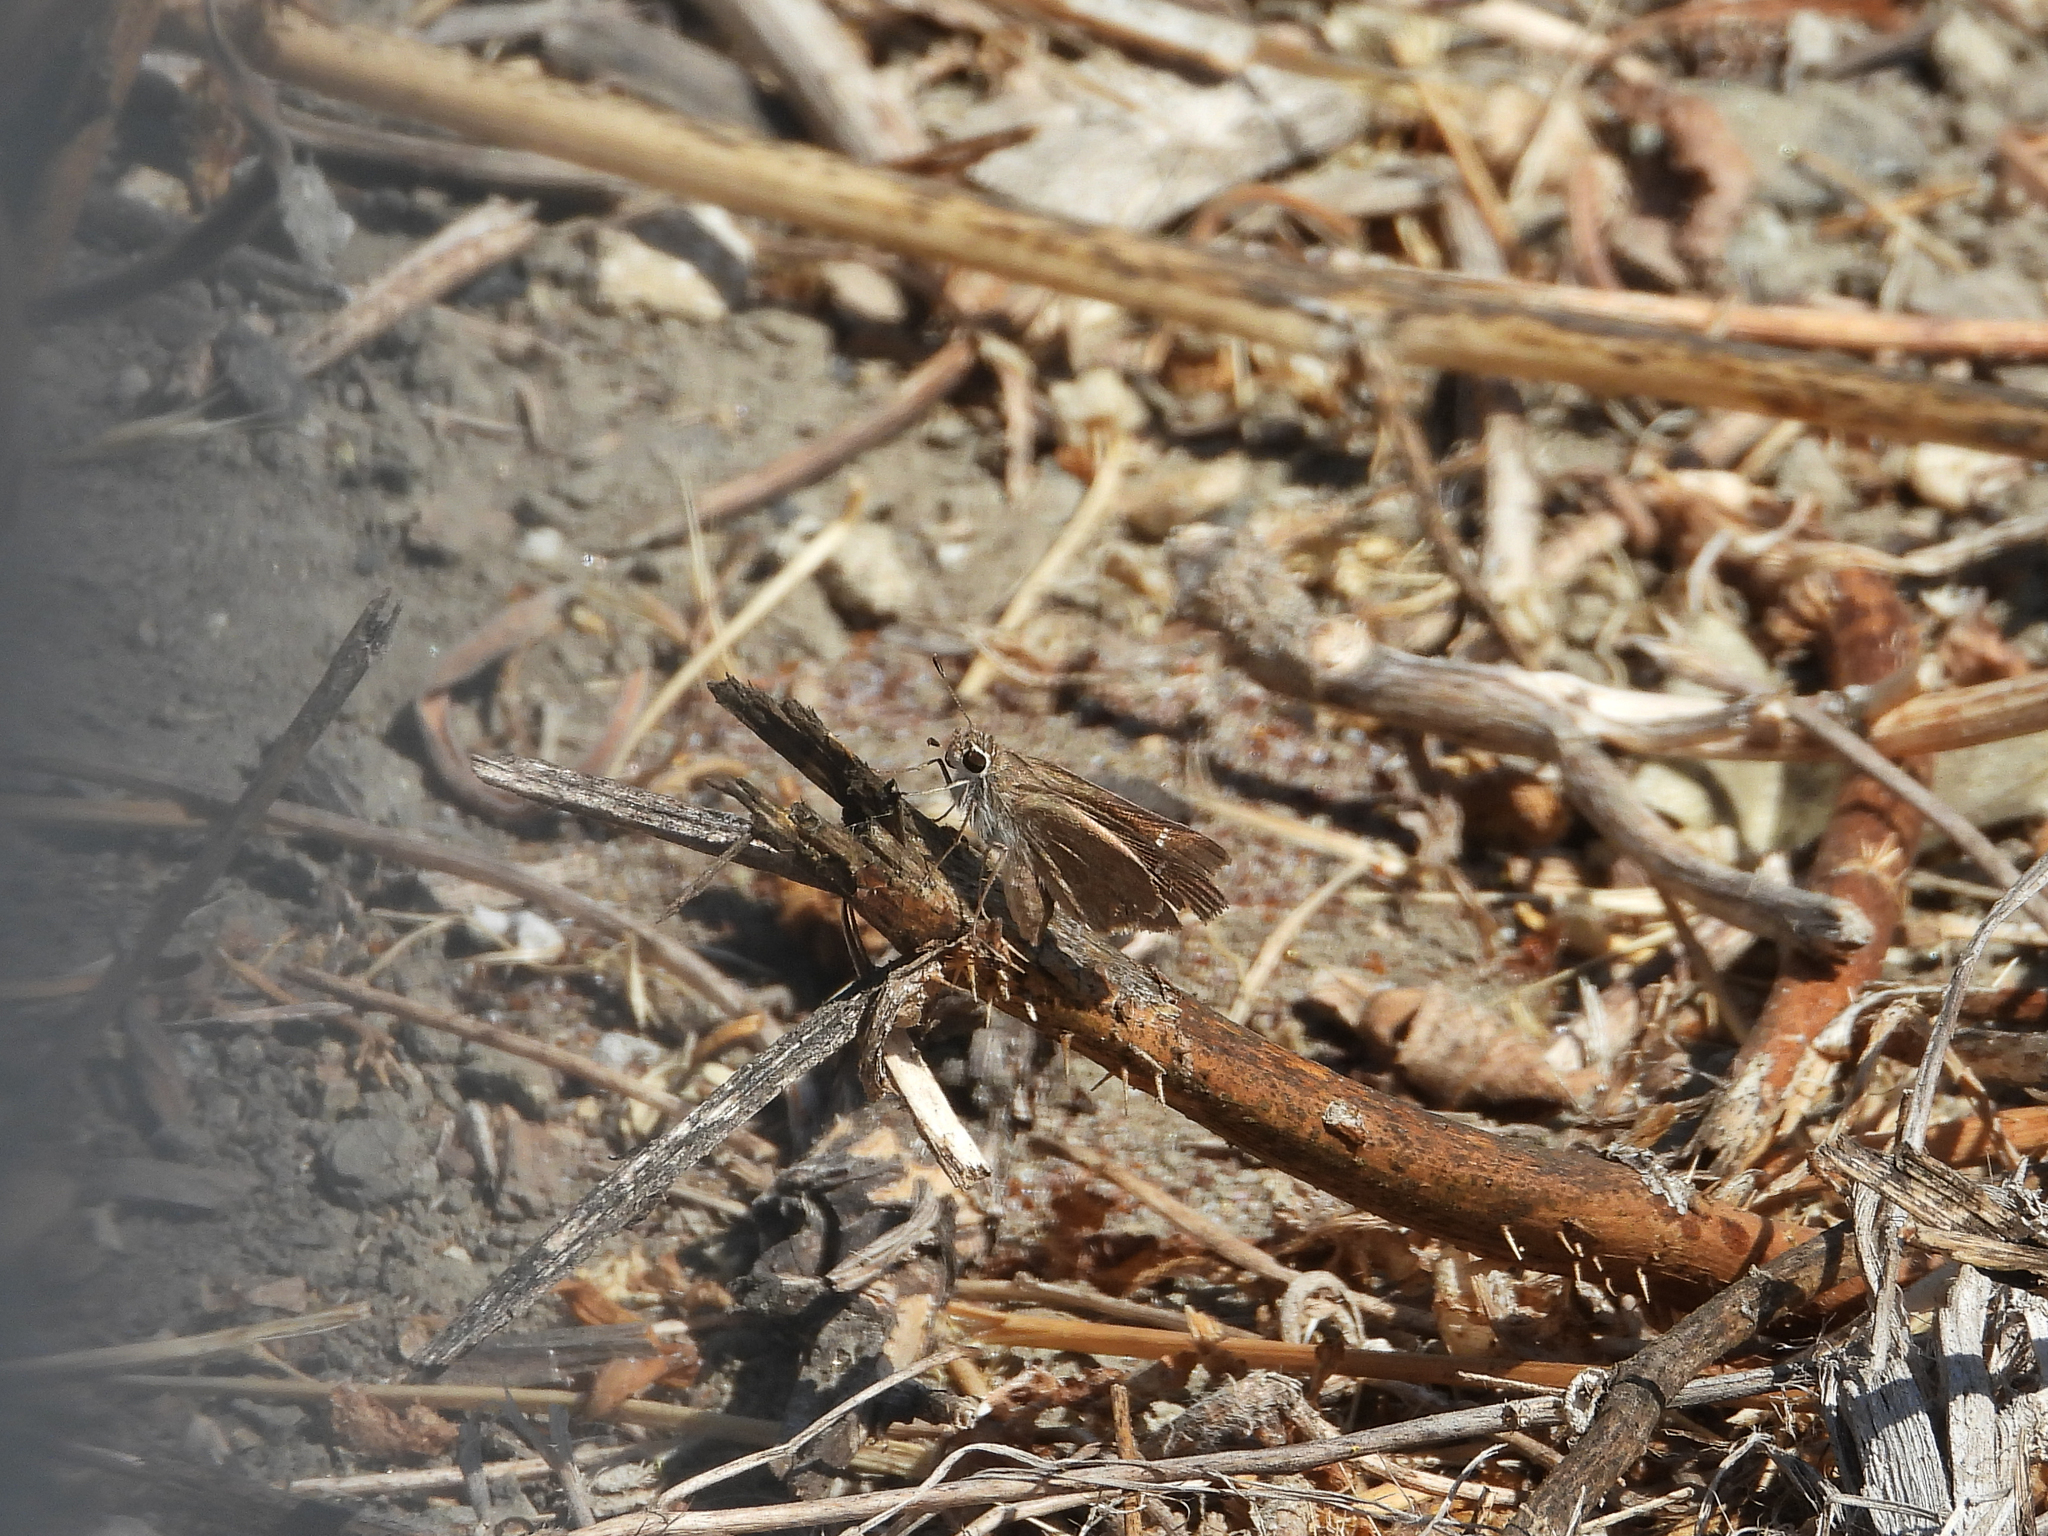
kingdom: Animalia
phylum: Arthropoda
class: Insecta
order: Lepidoptera
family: Hesperiidae
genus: Lerodea
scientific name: Lerodea eufala
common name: Eufala skipper
